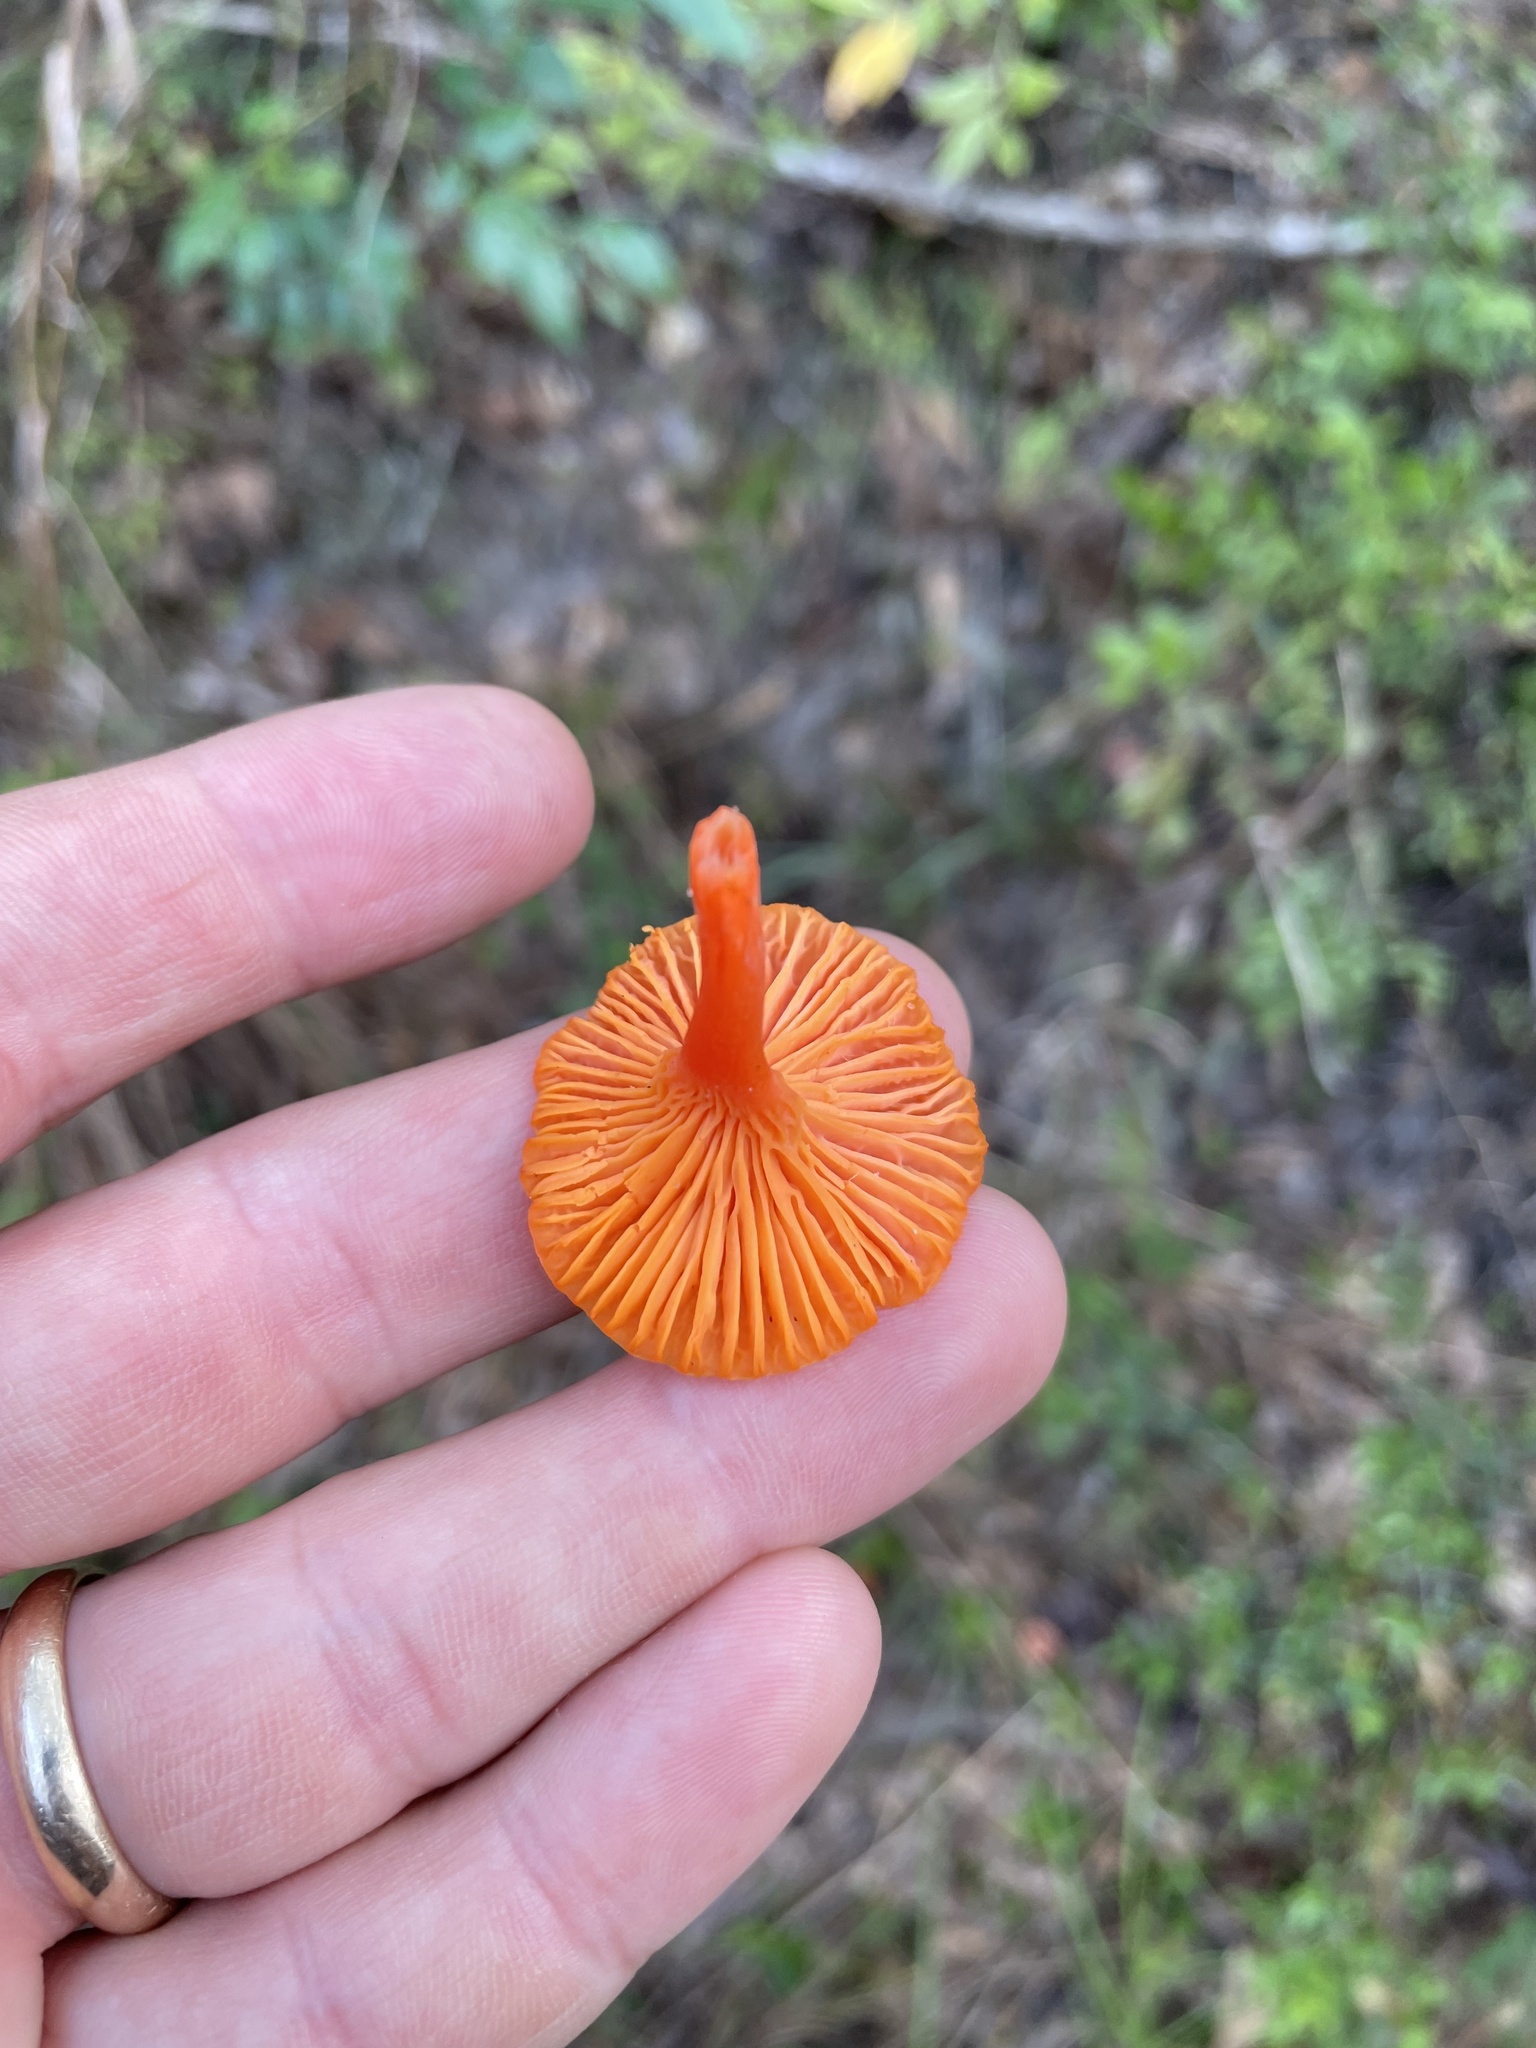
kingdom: Fungi
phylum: Basidiomycota
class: Agaricomycetes
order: Cantharellales
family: Hydnaceae
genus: Cantharellus
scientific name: Cantharellus cinnabarinus
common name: Cinnabar chanterelle
